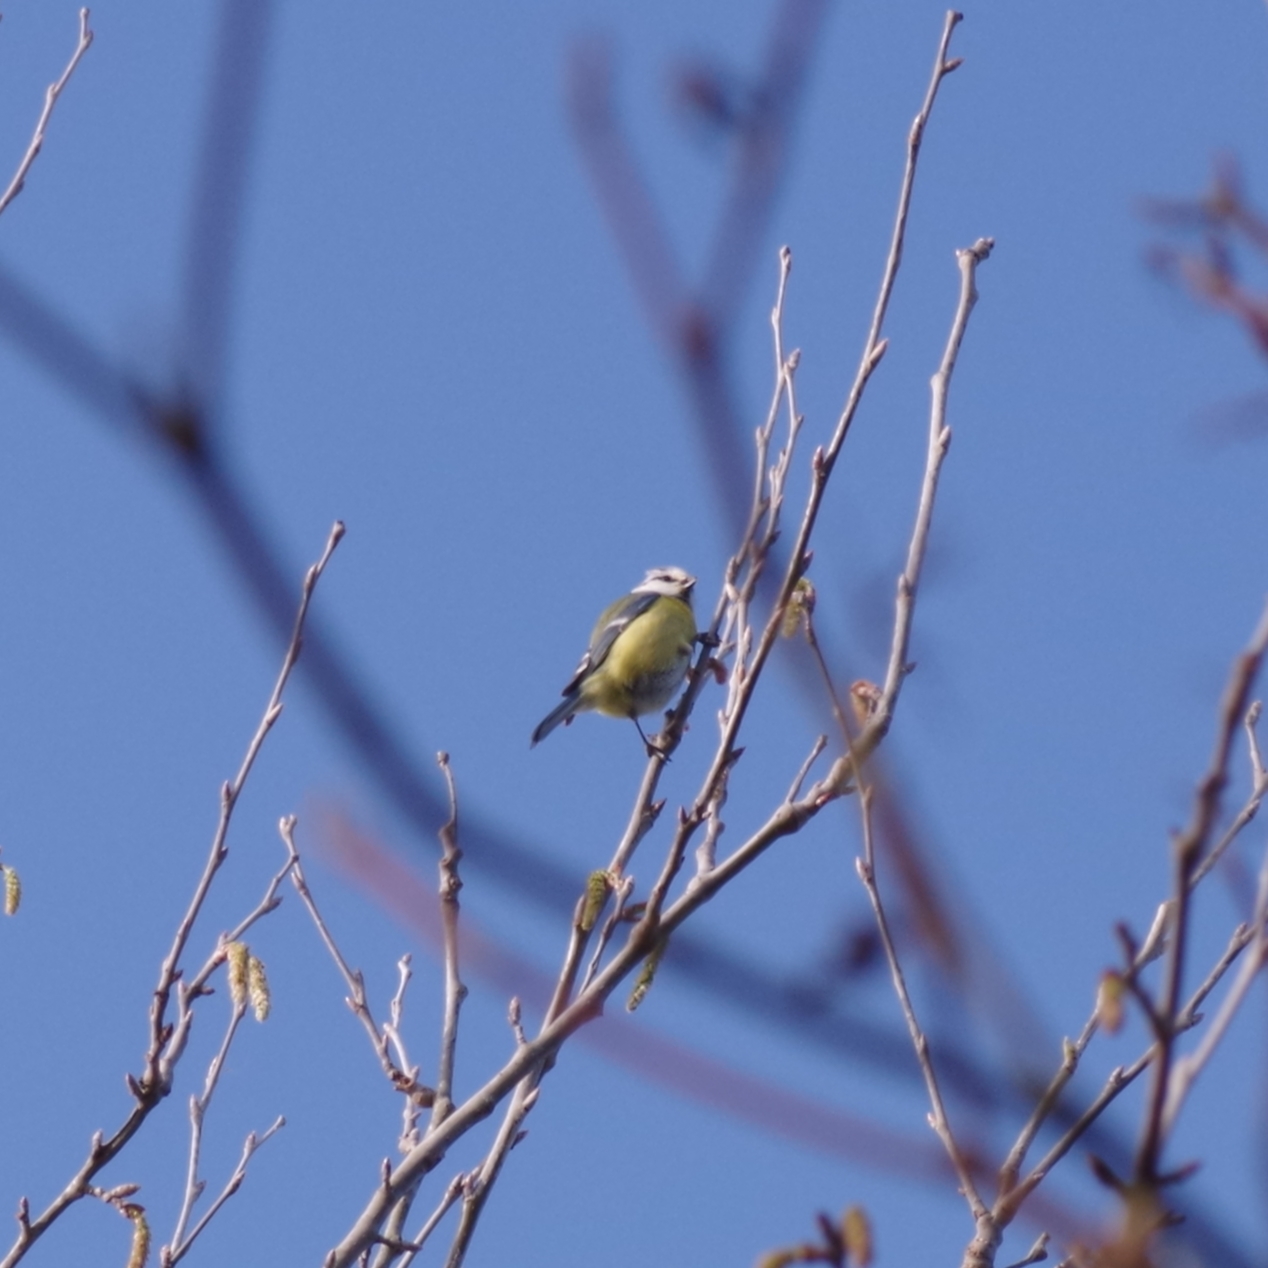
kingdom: Animalia
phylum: Chordata
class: Aves
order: Passeriformes
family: Paridae
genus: Cyanistes
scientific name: Cyanistes caeruleus
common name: Eurasian blue tit
